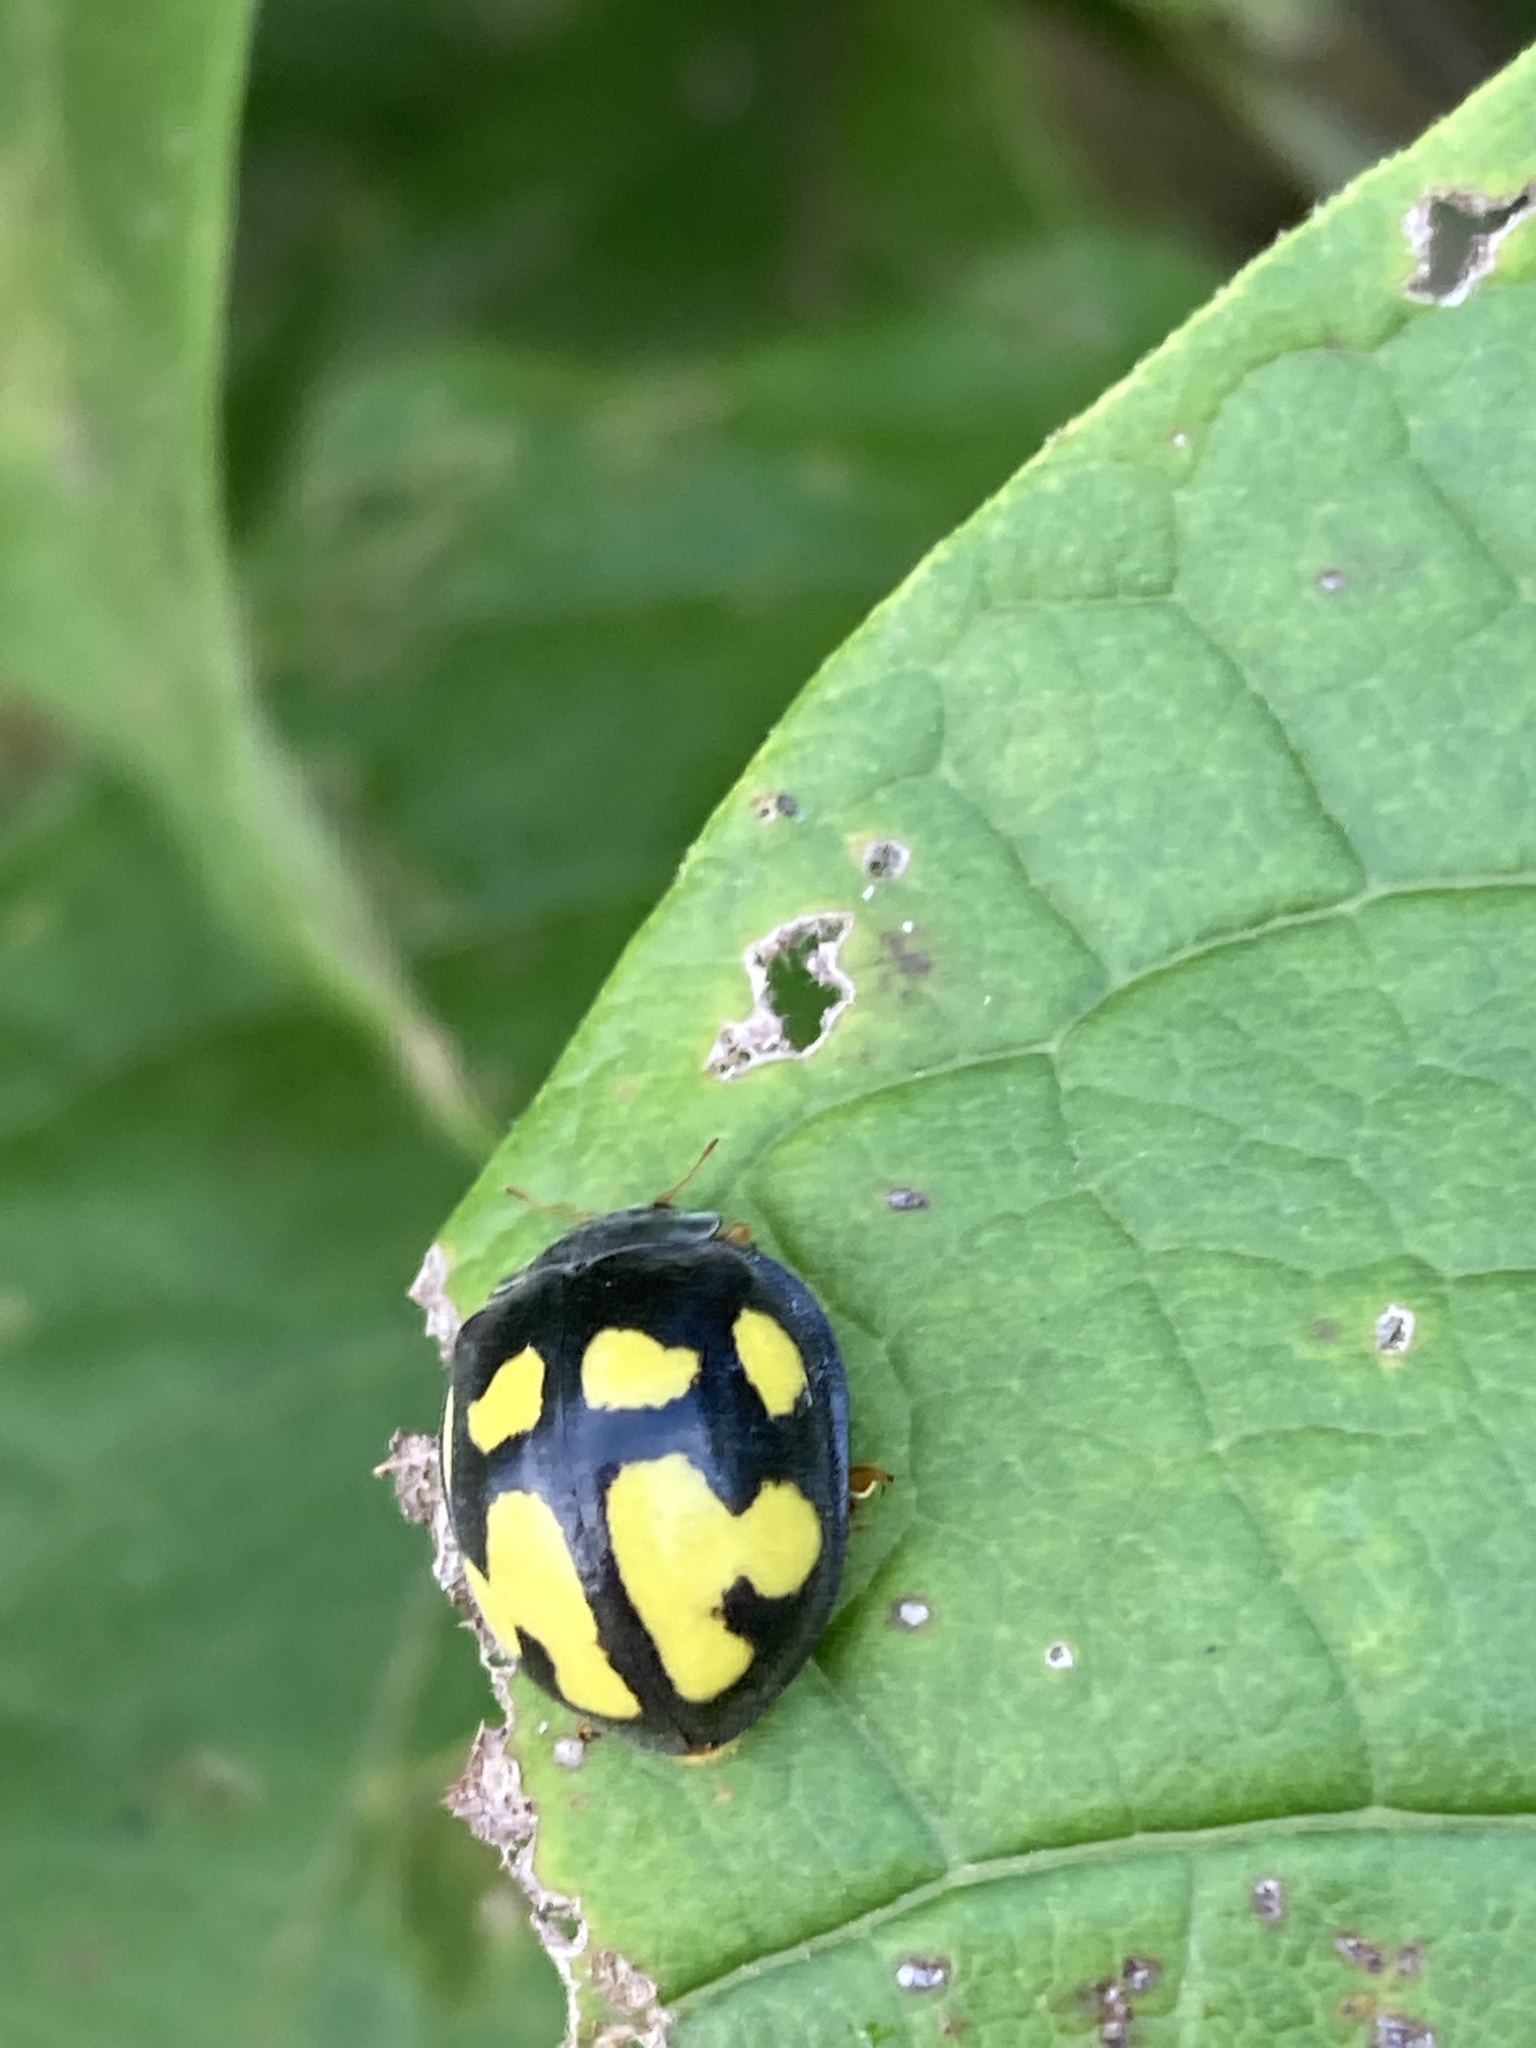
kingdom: Animalia
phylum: Arthropoda
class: Insecta
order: Coleoptera
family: Coccinellidae
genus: Epilachna
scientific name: Epilachna
